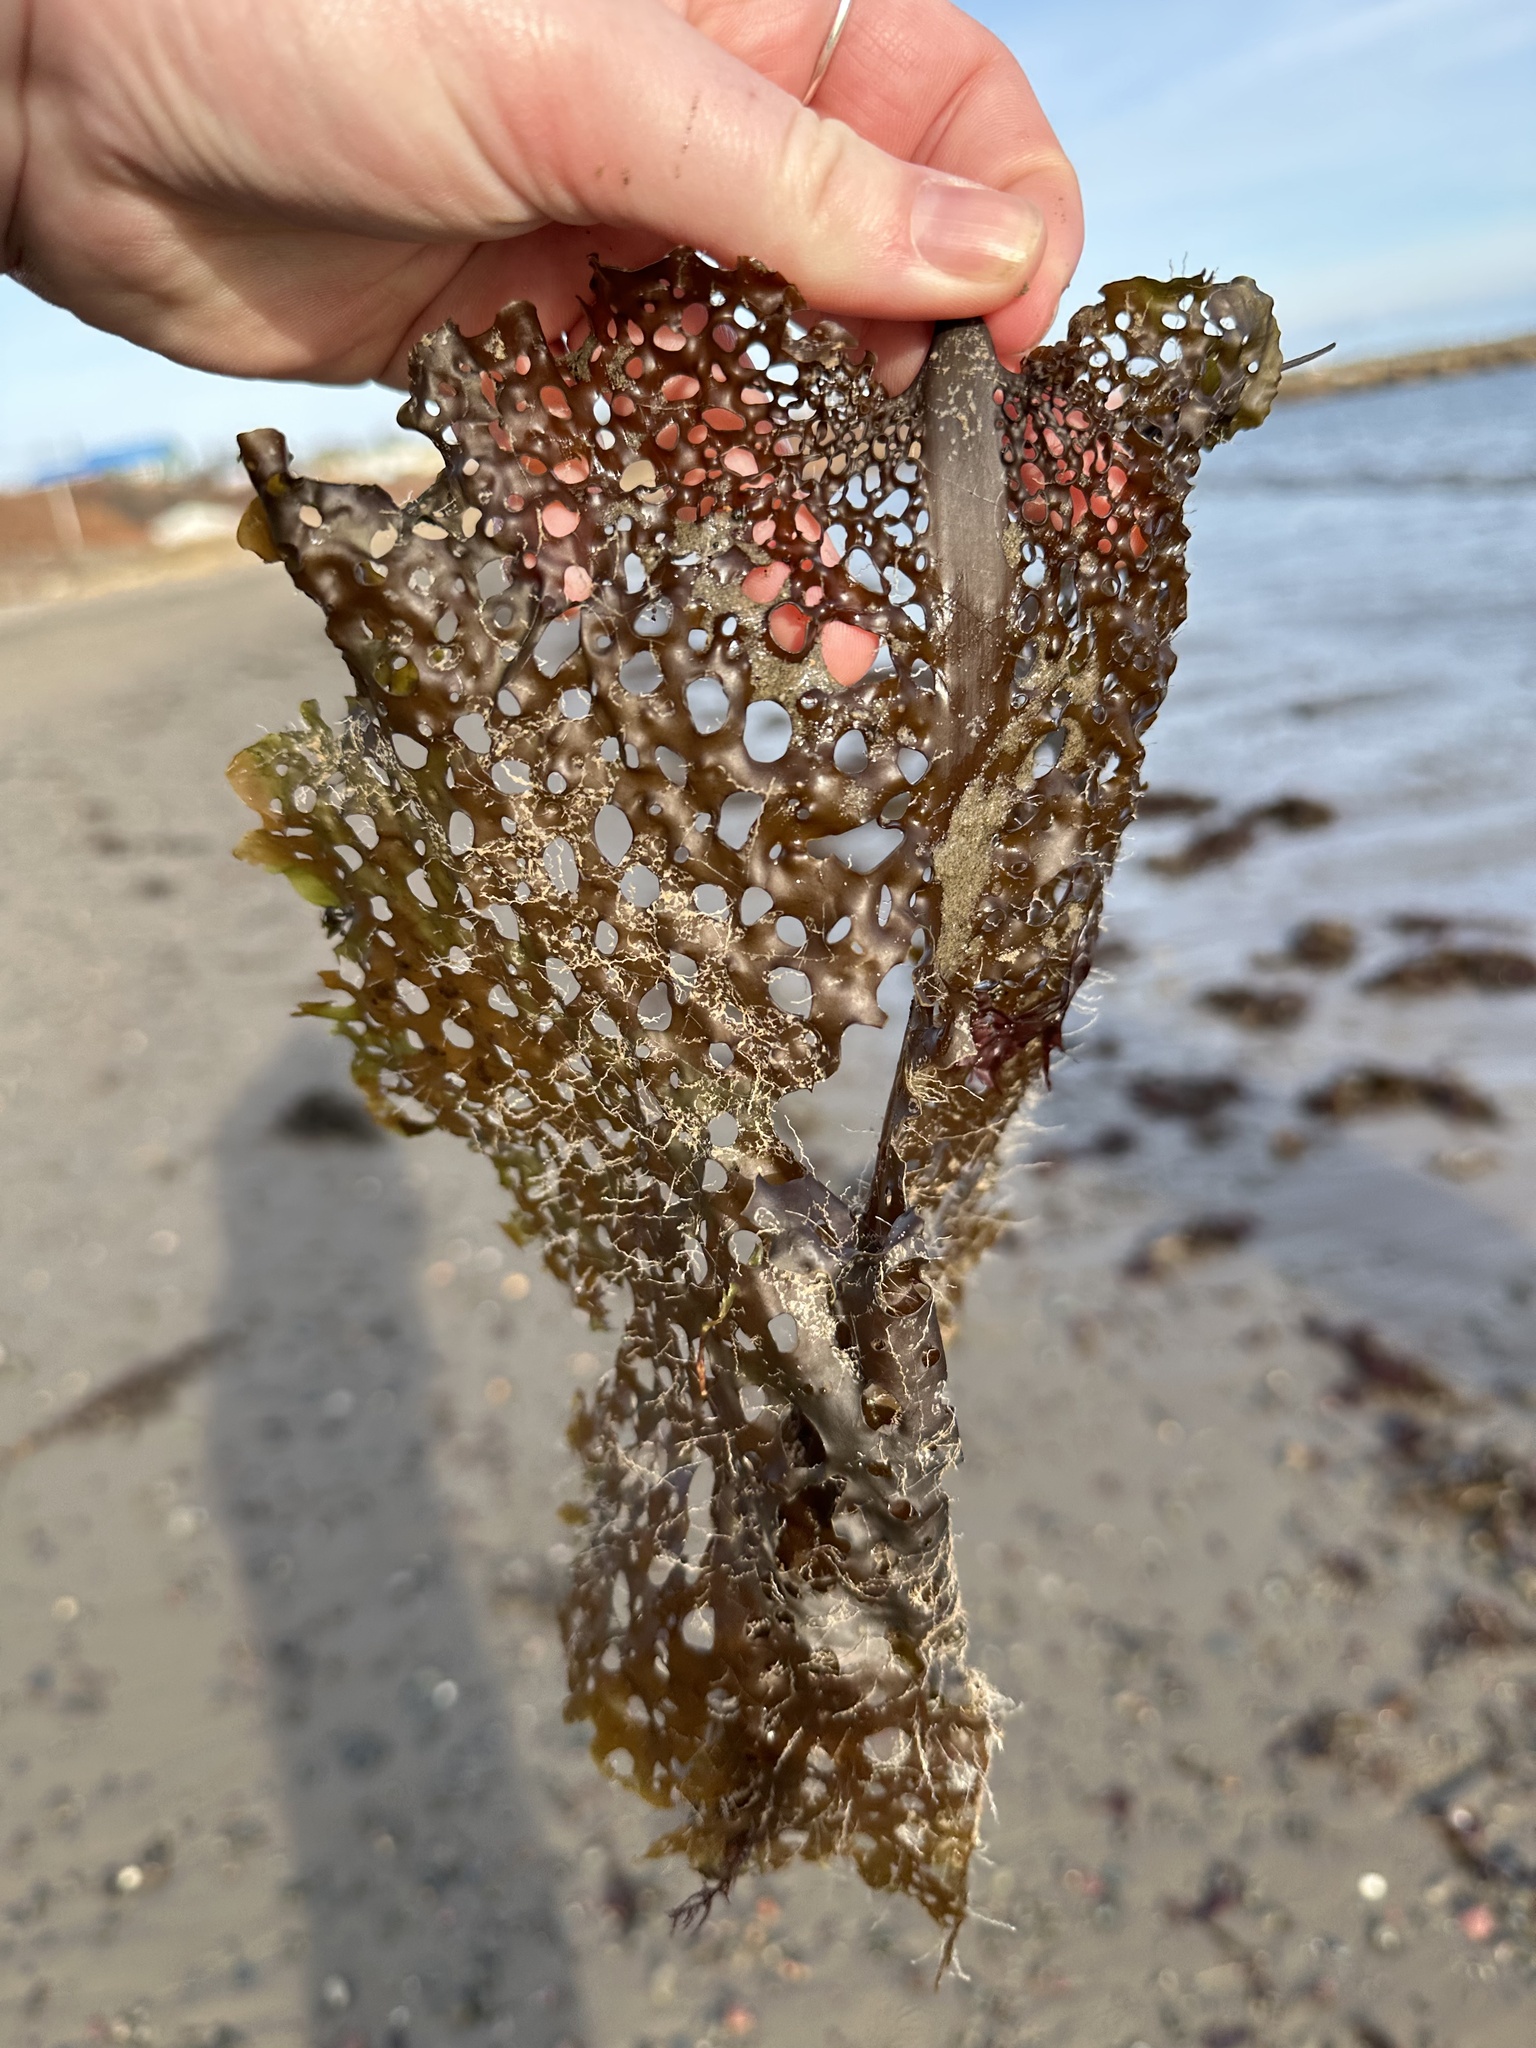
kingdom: Chromista
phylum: Ochrophyta
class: Phaeophyceae
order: Laminariales
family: Costariaceae
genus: Agarum
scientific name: Agarum clathratum
